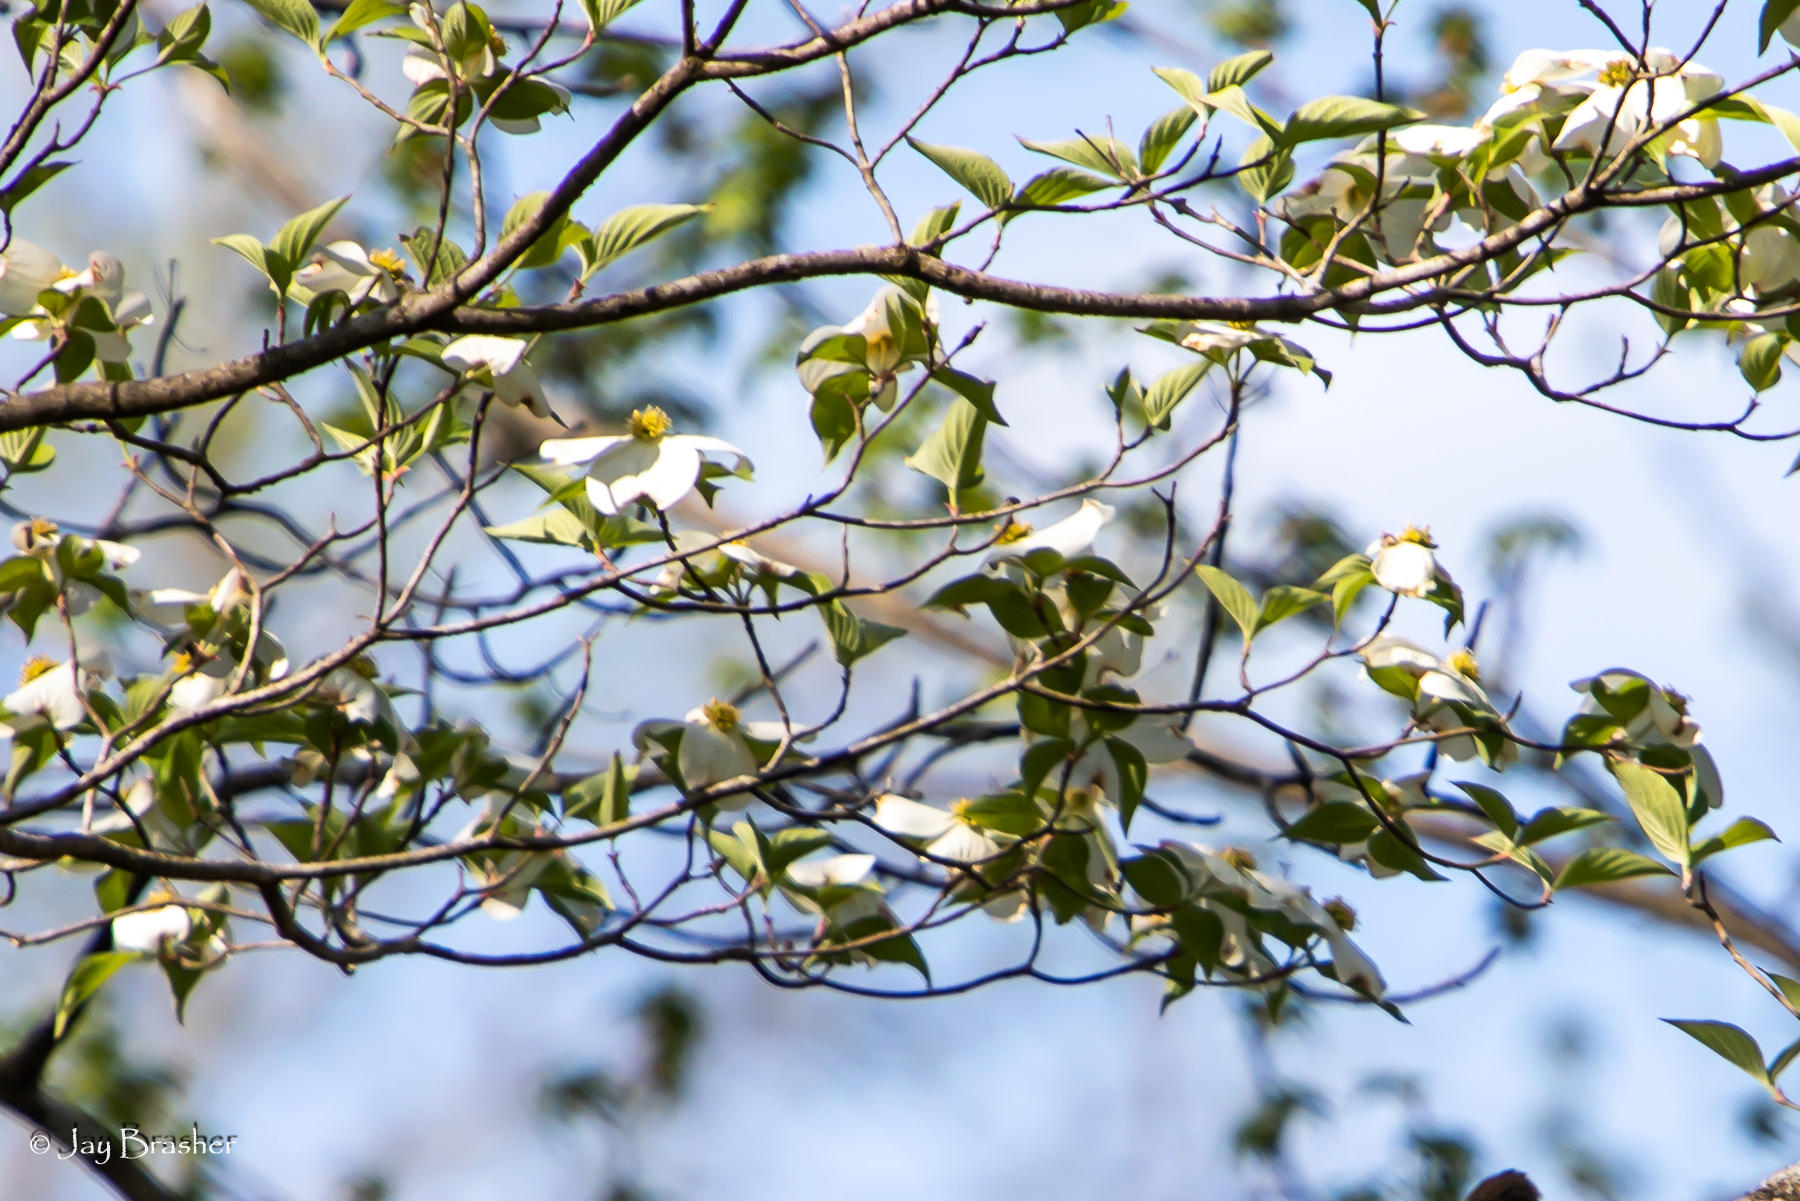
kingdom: Plantae
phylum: Tracheophyta
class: Magnoliopsida
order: Cornales
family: Cornaceae
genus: Cornus
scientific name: Cornus florida
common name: Flowering dogwood
